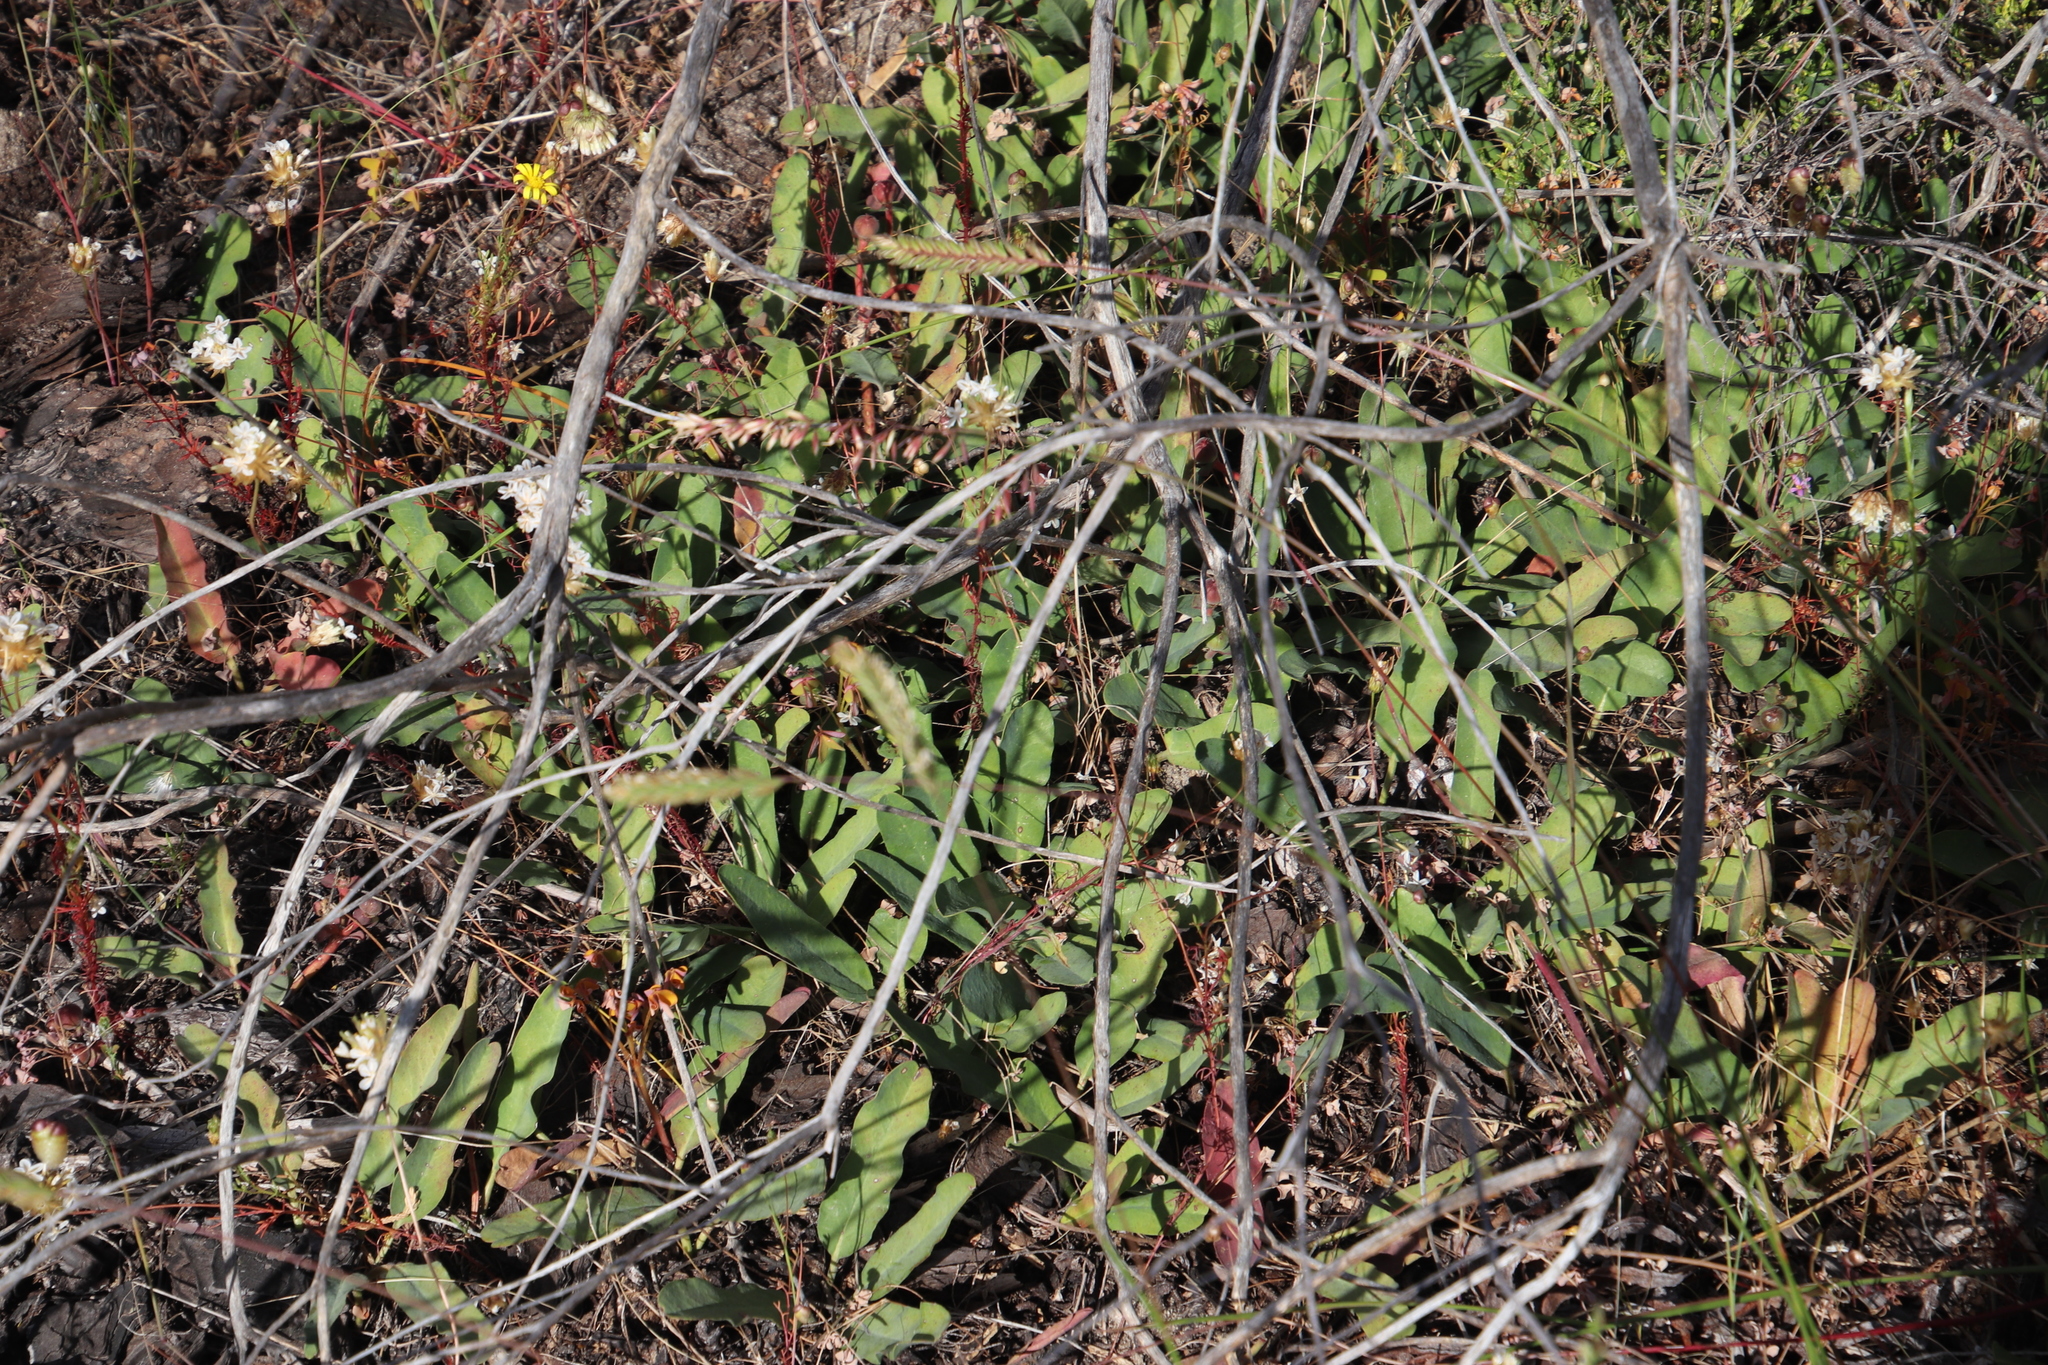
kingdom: Plantae
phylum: Tracheophyta
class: Magnoliopsida
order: Malpighiales
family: Euphorbiaceae
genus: Euphorbia
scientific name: Euphorbia tuberosa
